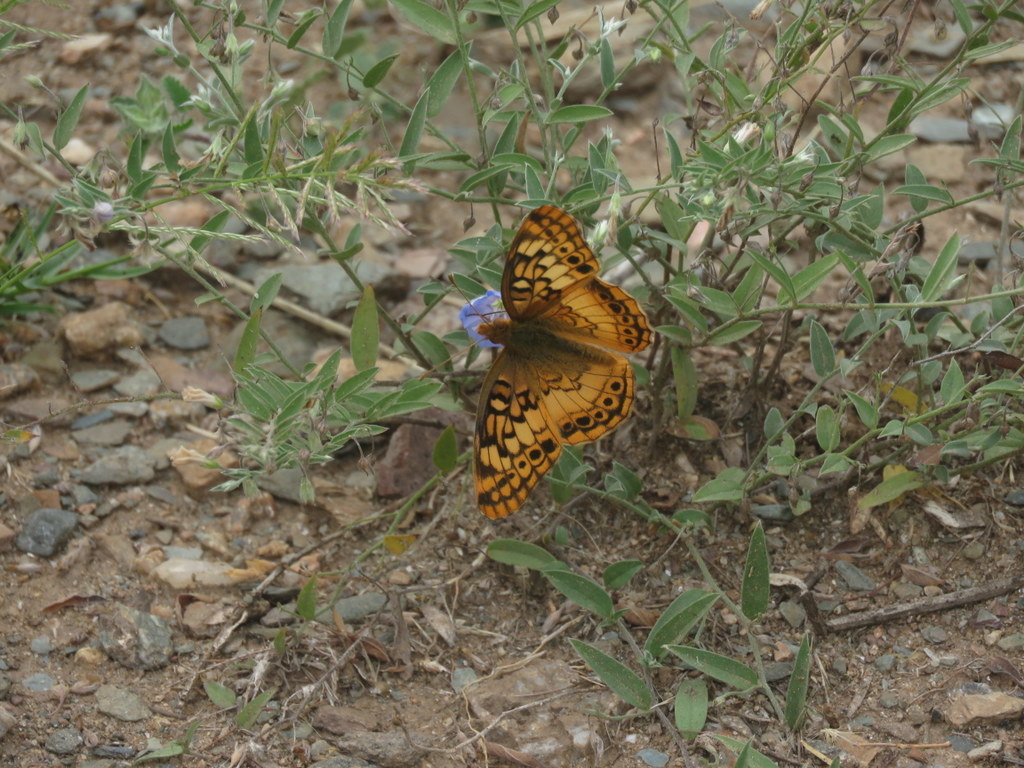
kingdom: Animalia
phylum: Arthropoda
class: Insecta
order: Lepidoptera
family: Nymphalidae
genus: Euptoieta
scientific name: Euptoieta hortensia
